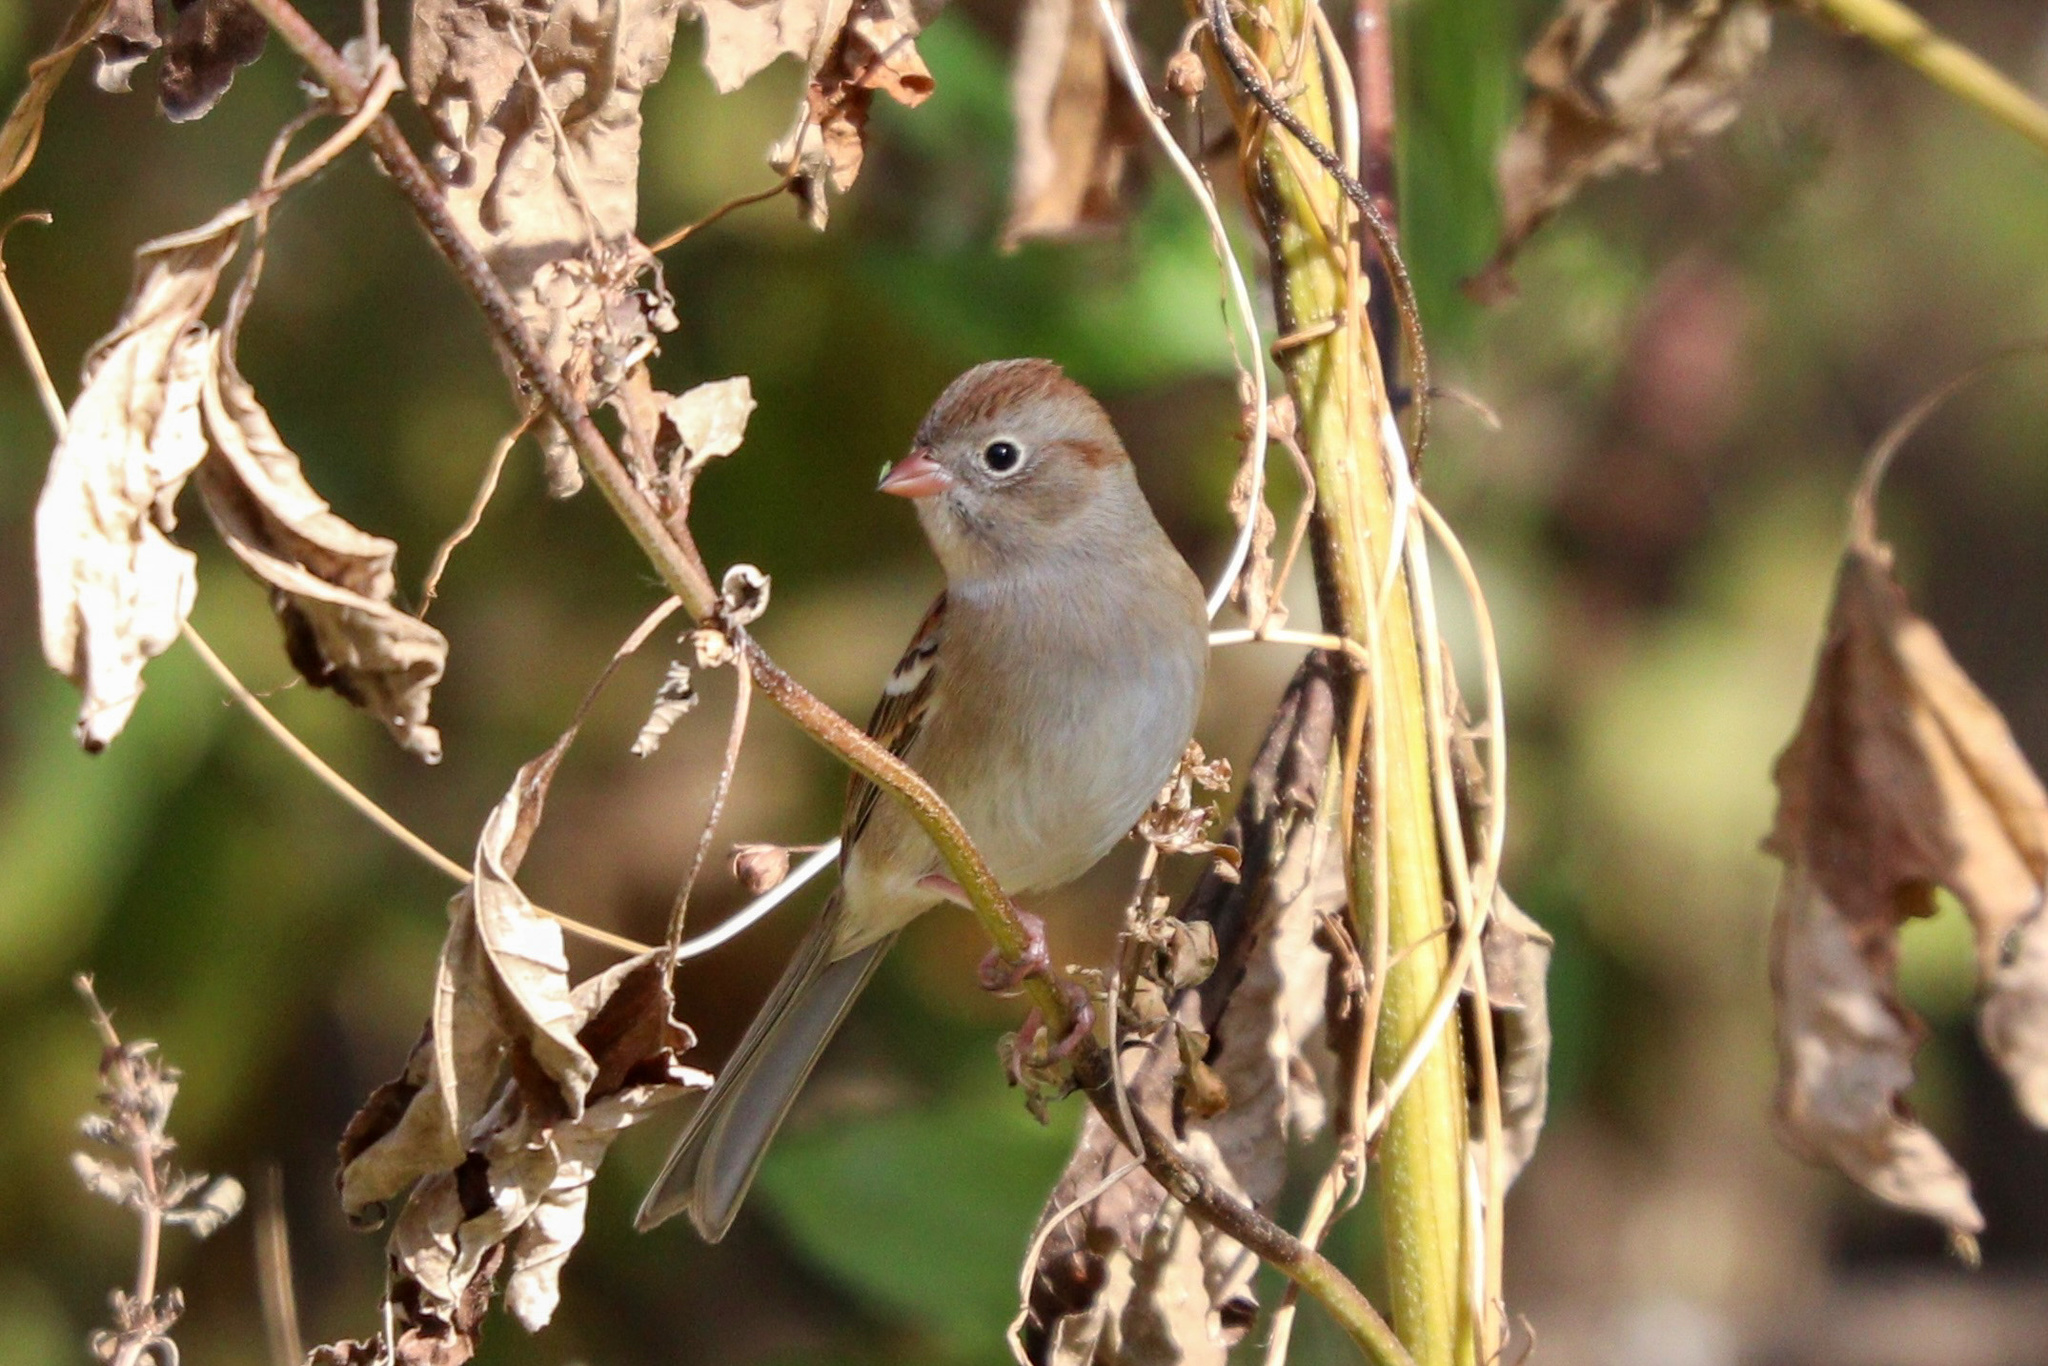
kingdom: Animalia
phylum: Chordata
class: Aves
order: Passeriformes
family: Passerellidae
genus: Spizella
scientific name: Spizella pusilla
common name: Field sparrow
